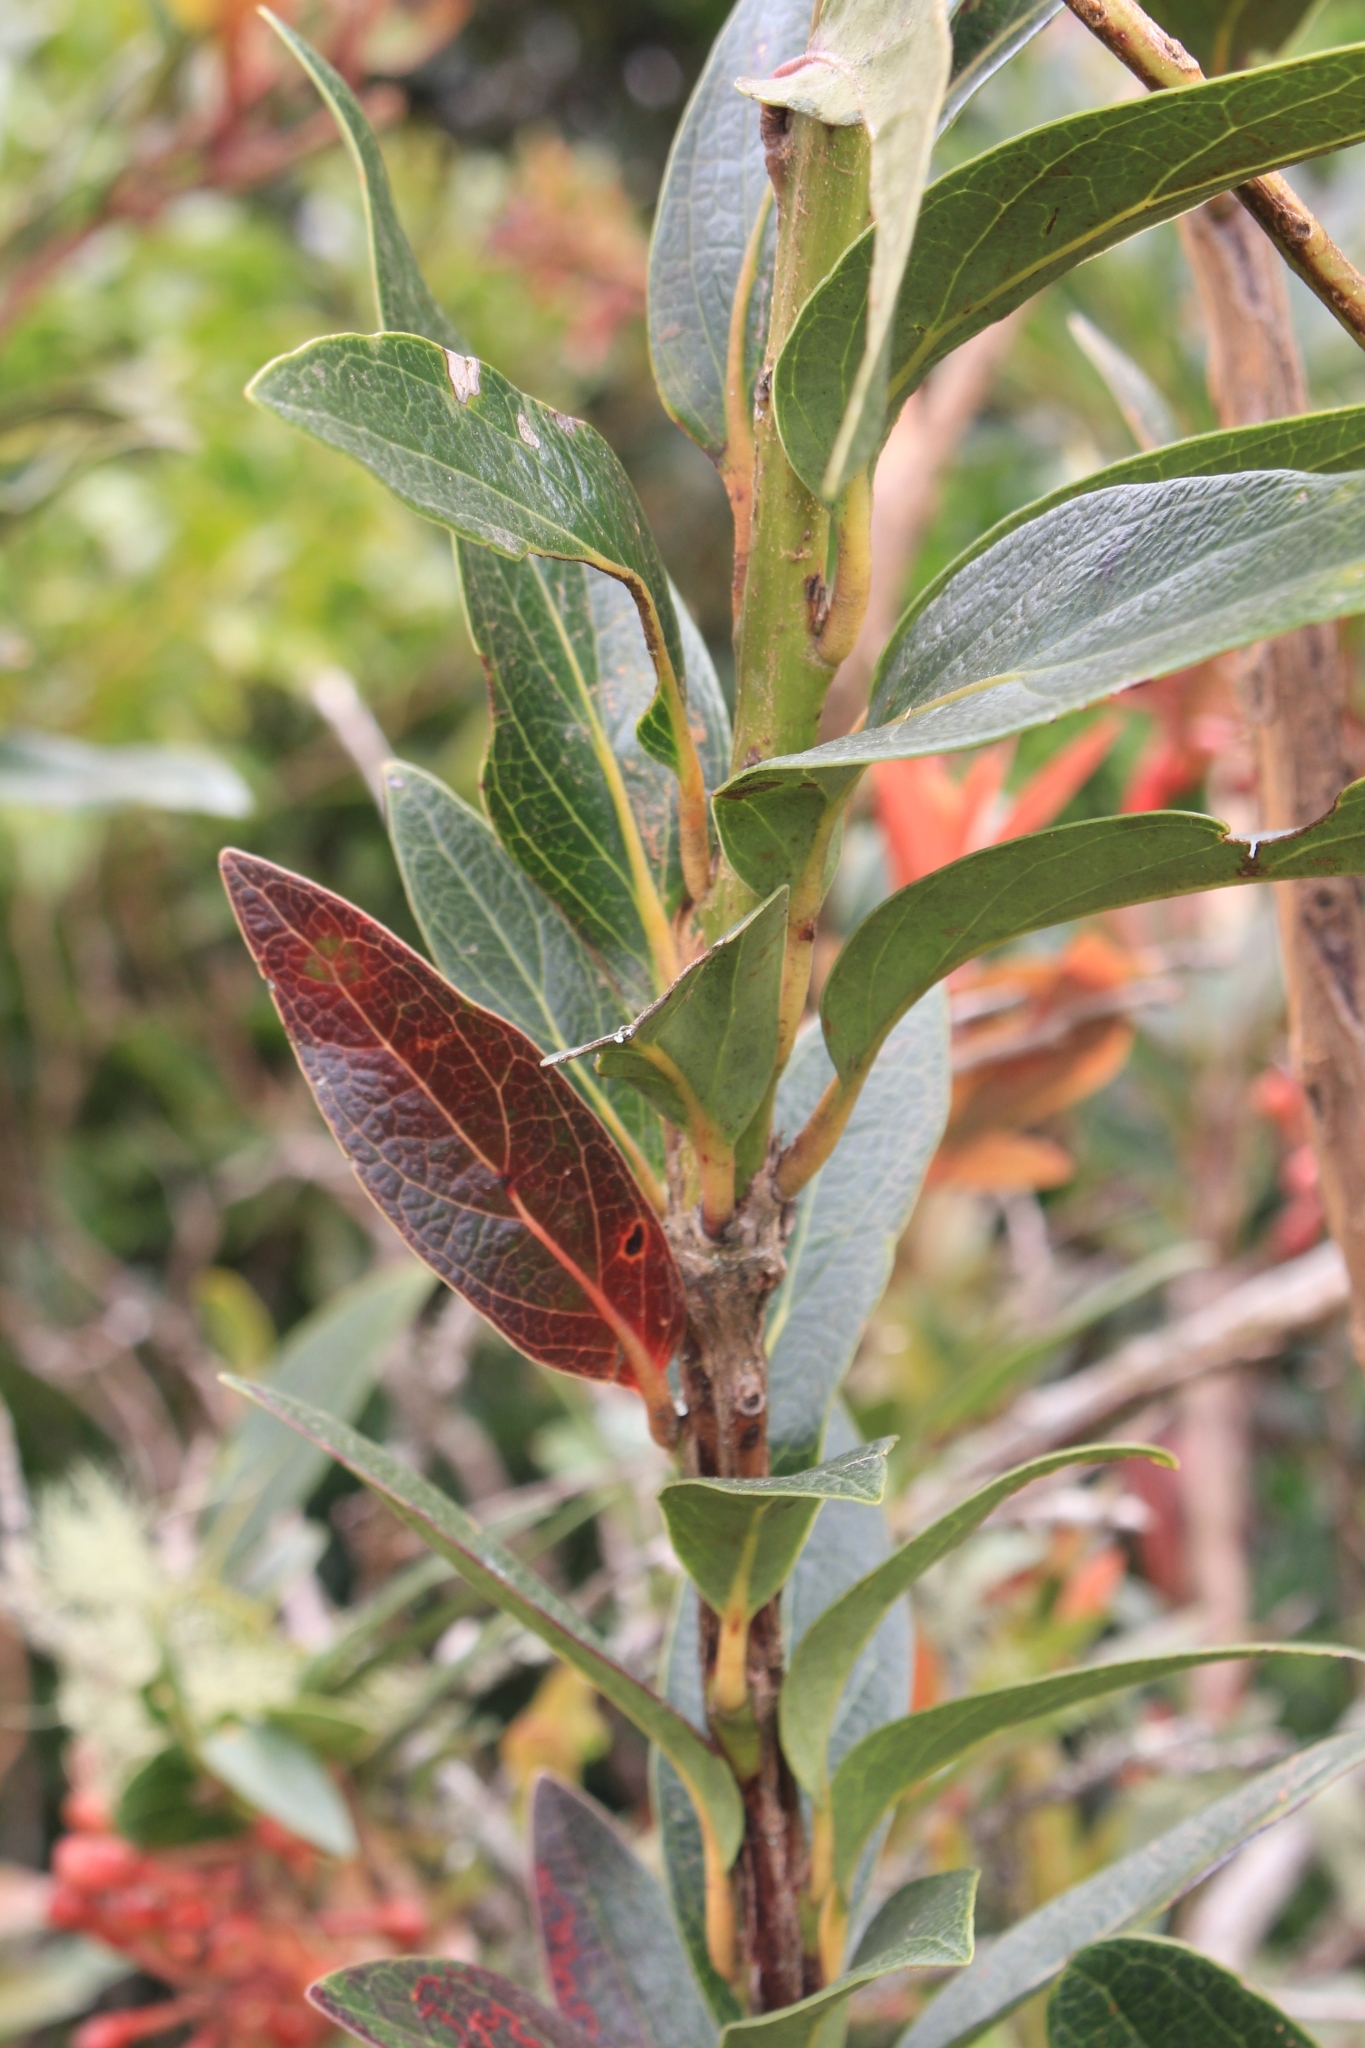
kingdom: Plantae
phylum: Tracheophyta
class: Magnoliopsida
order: Ericales
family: Ericaceae
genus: Macleania
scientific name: Macleania rupestris
